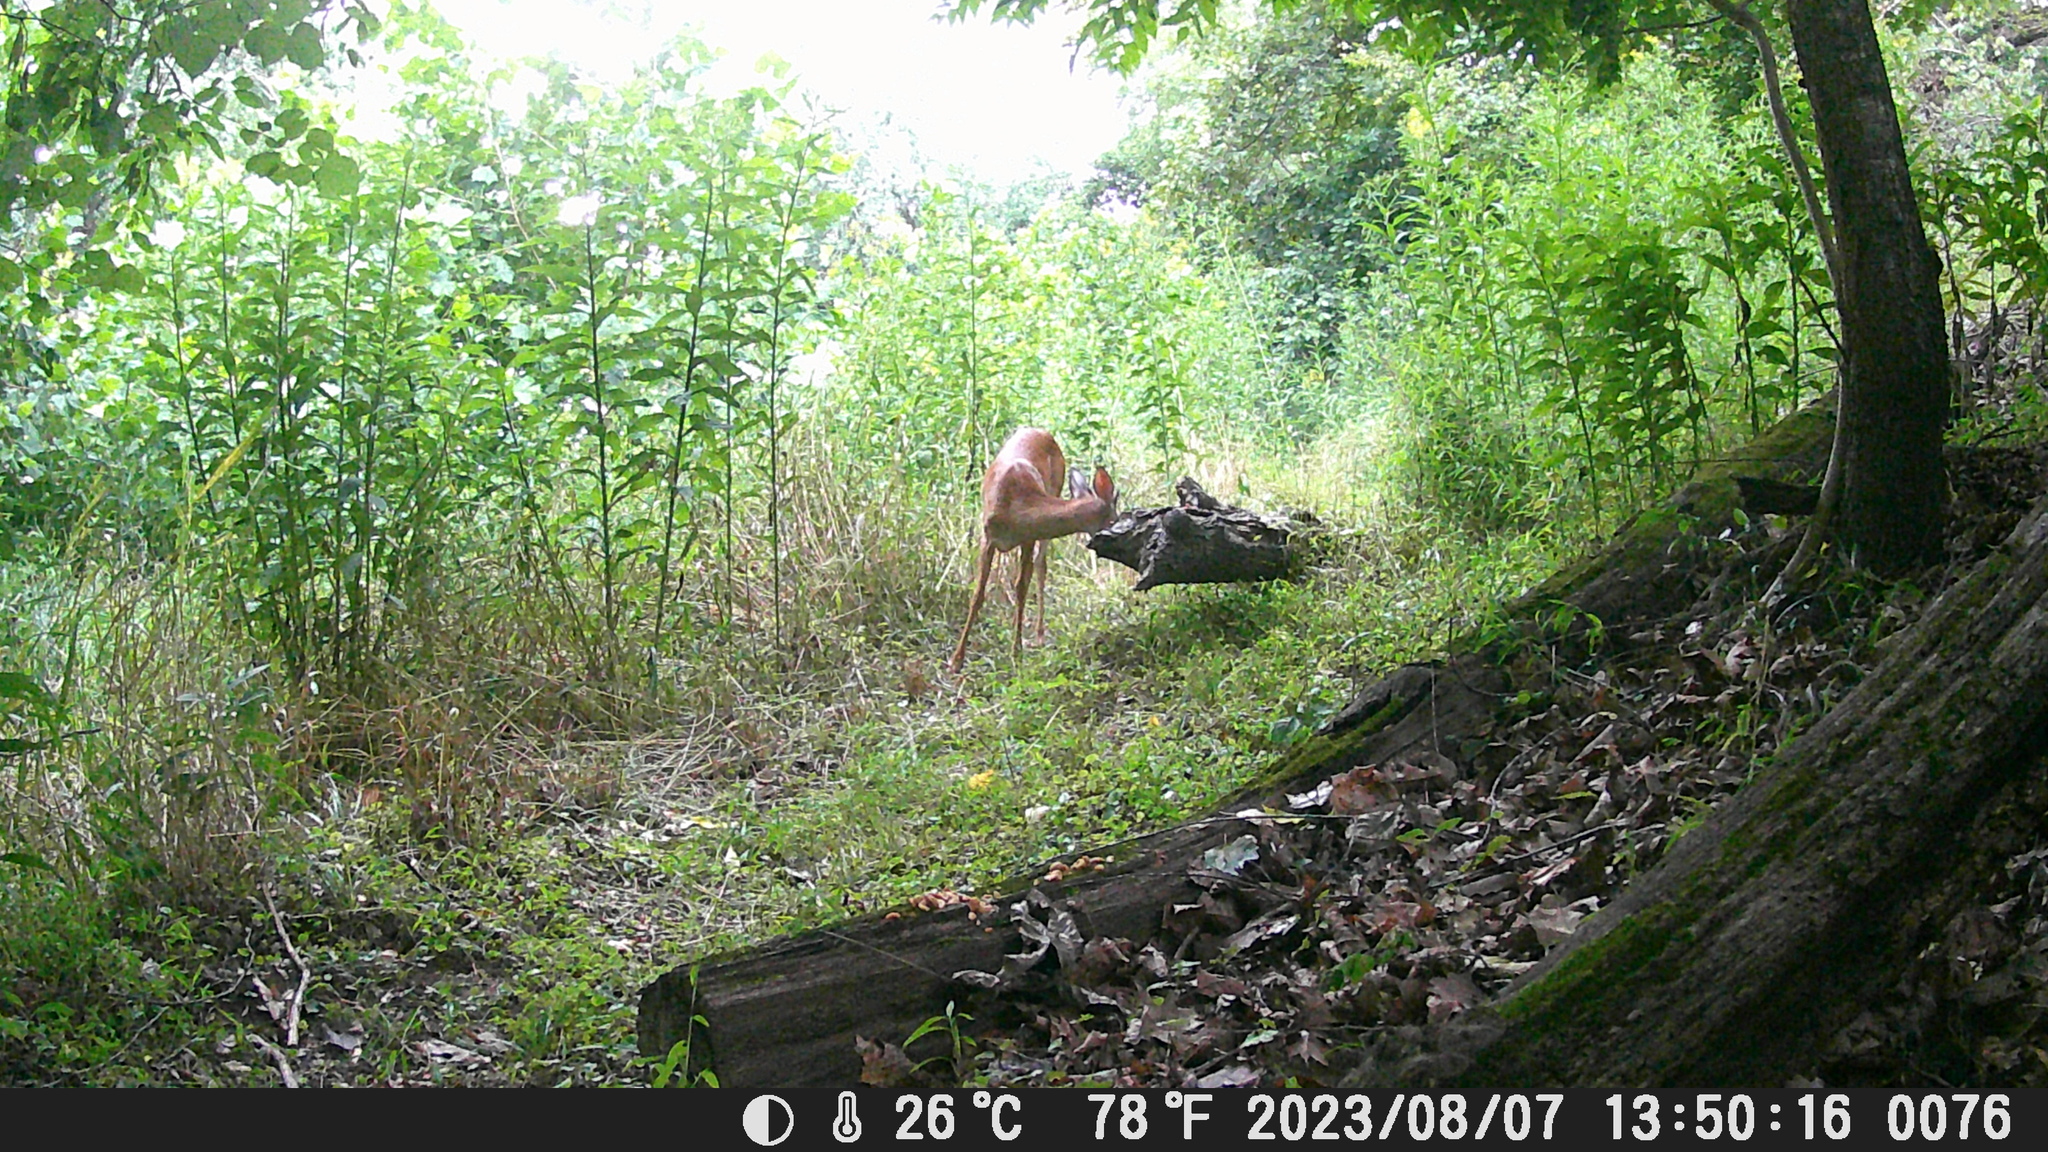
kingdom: Animalia
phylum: Chordata
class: Mammalia
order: Artiodactyla
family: Cervidae
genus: Odocoileus
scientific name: Odocoileus virginianus
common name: White-tailed deer
